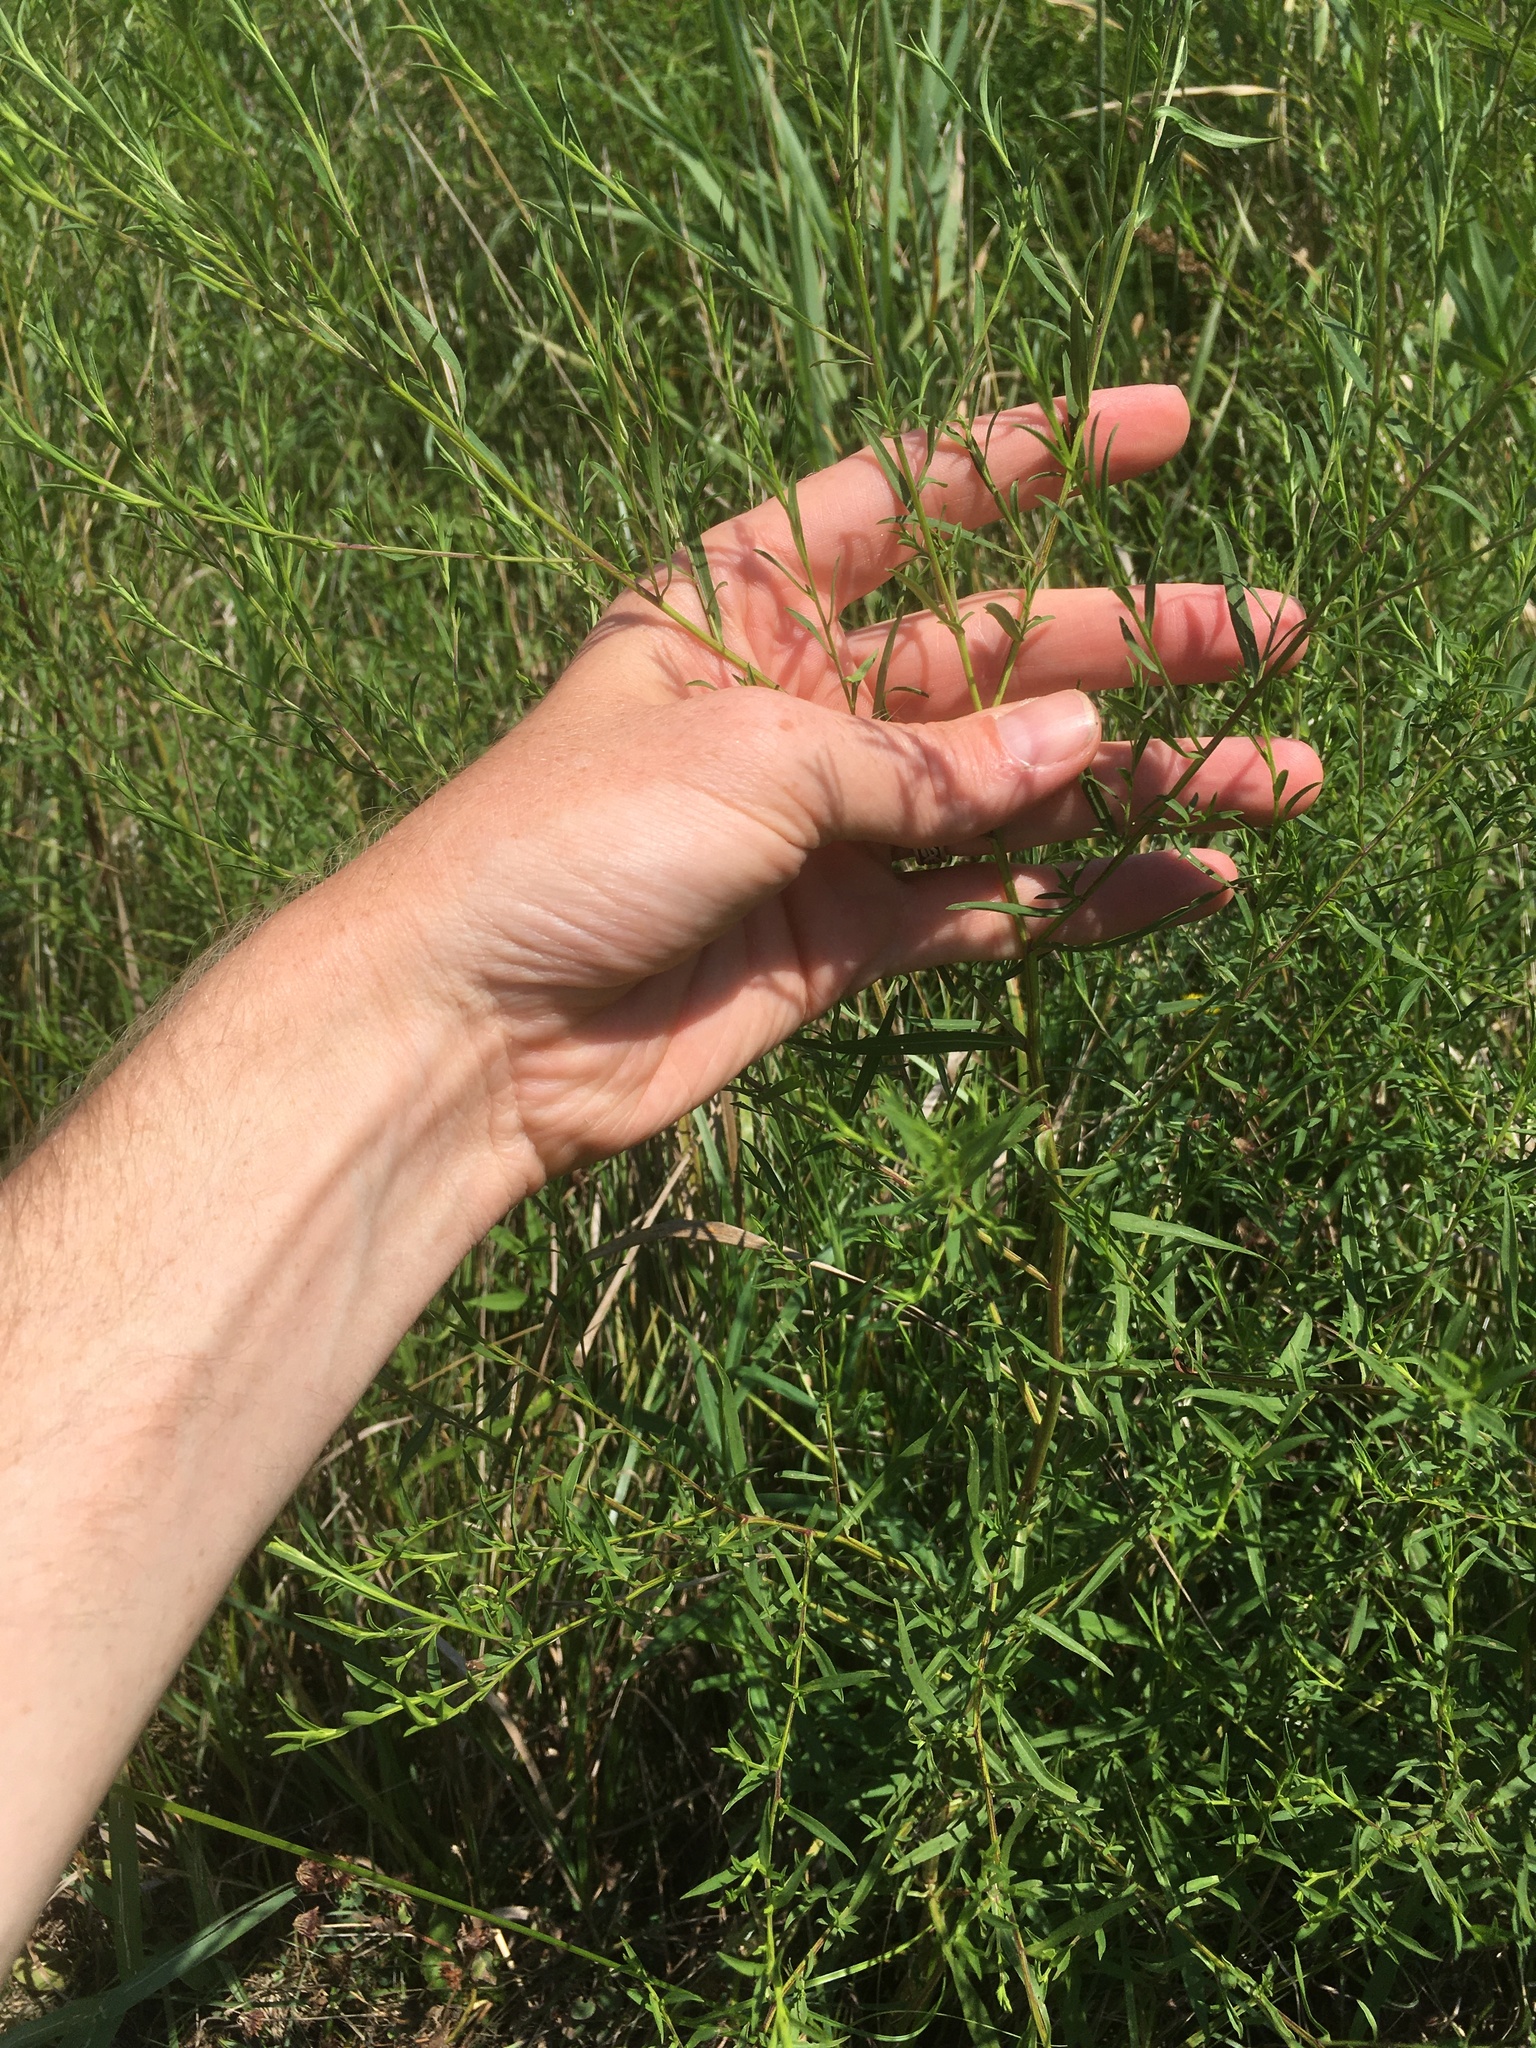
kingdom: Plantae
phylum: Tracheophyta
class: Magnoliopsida
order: Asterales
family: Asteraceae
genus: Symphyotrichum
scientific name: Symphyotrichum lanceolatum
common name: Panicled aster
